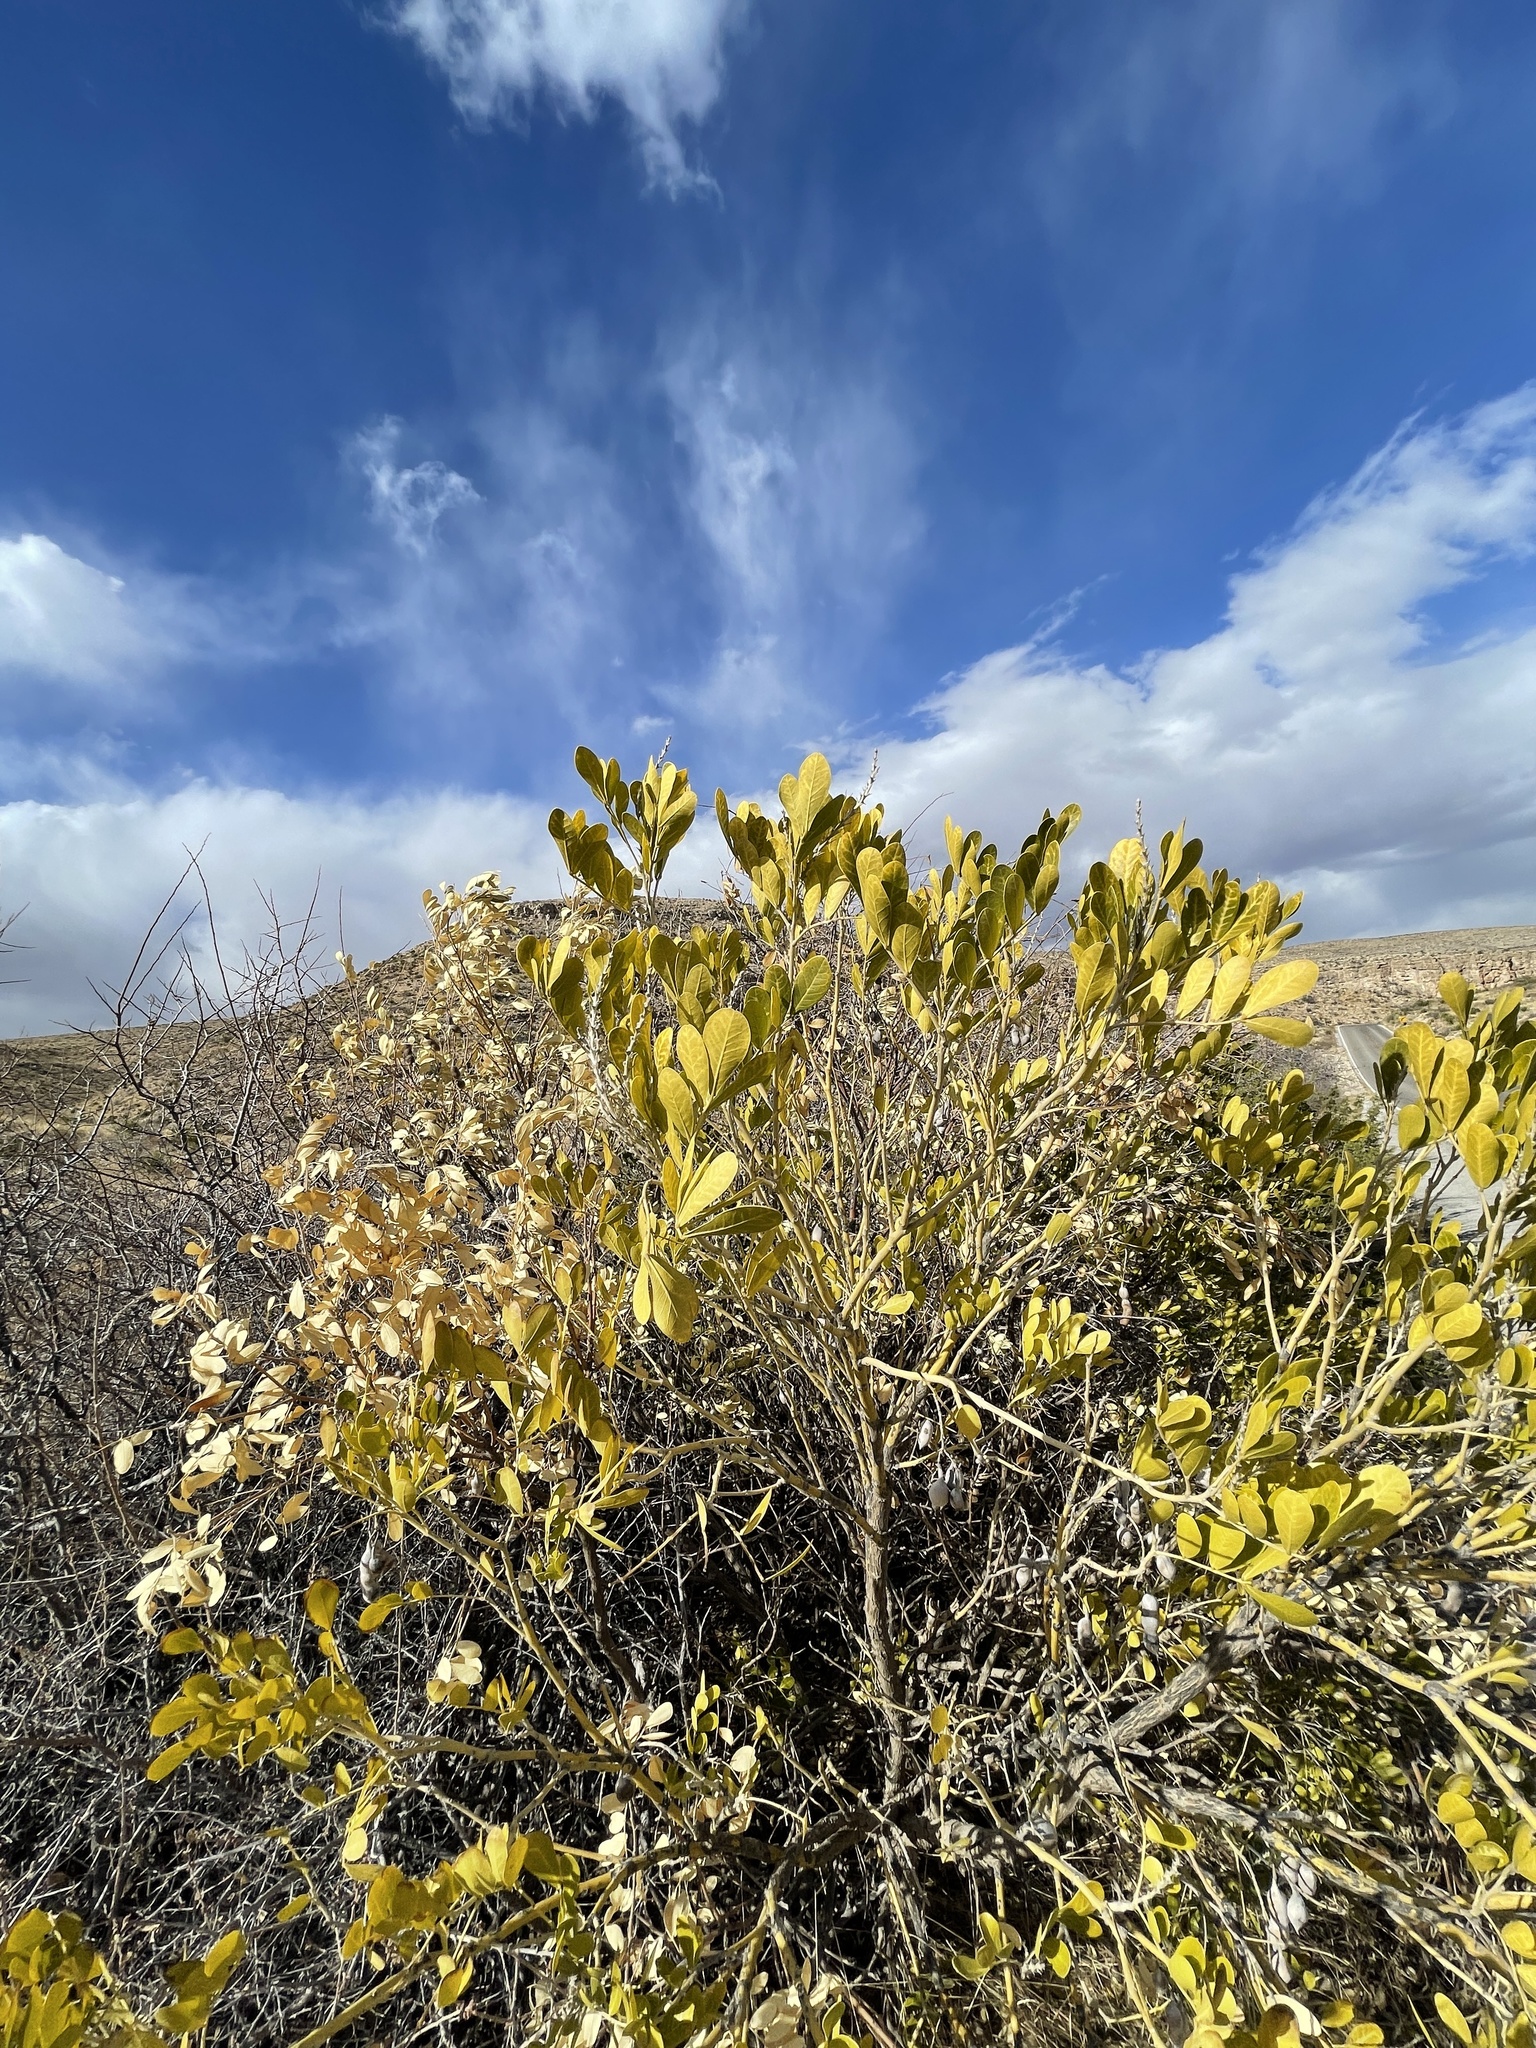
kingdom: Plantae
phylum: Tracheophyta
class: Magnoliopsida
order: Fabales
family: Fabaceae
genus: Dermatophyllum
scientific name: Dermatophyllum secundiflorum
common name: Texas-mountain-laurel
